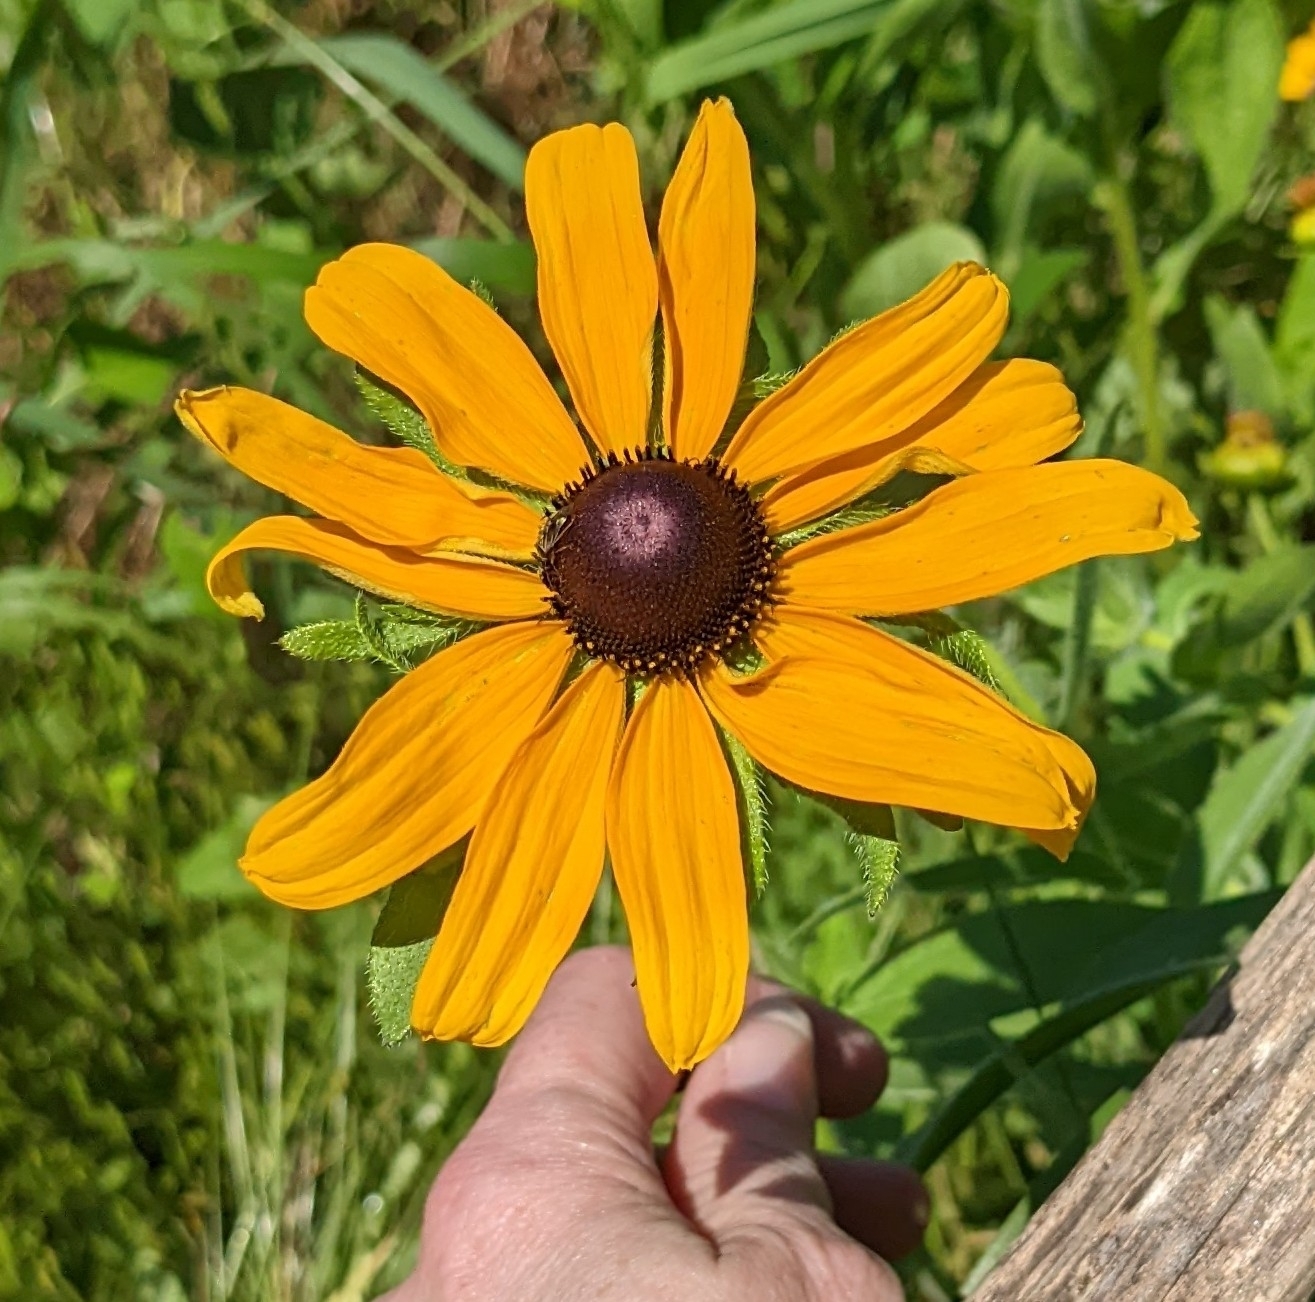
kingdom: Plantae
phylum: Tracheophyta
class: Magnoliopsida
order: Asterales
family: Asteraceae
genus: Rudbeckia
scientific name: Rudbeckia hirta
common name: Black-eyed-susan
